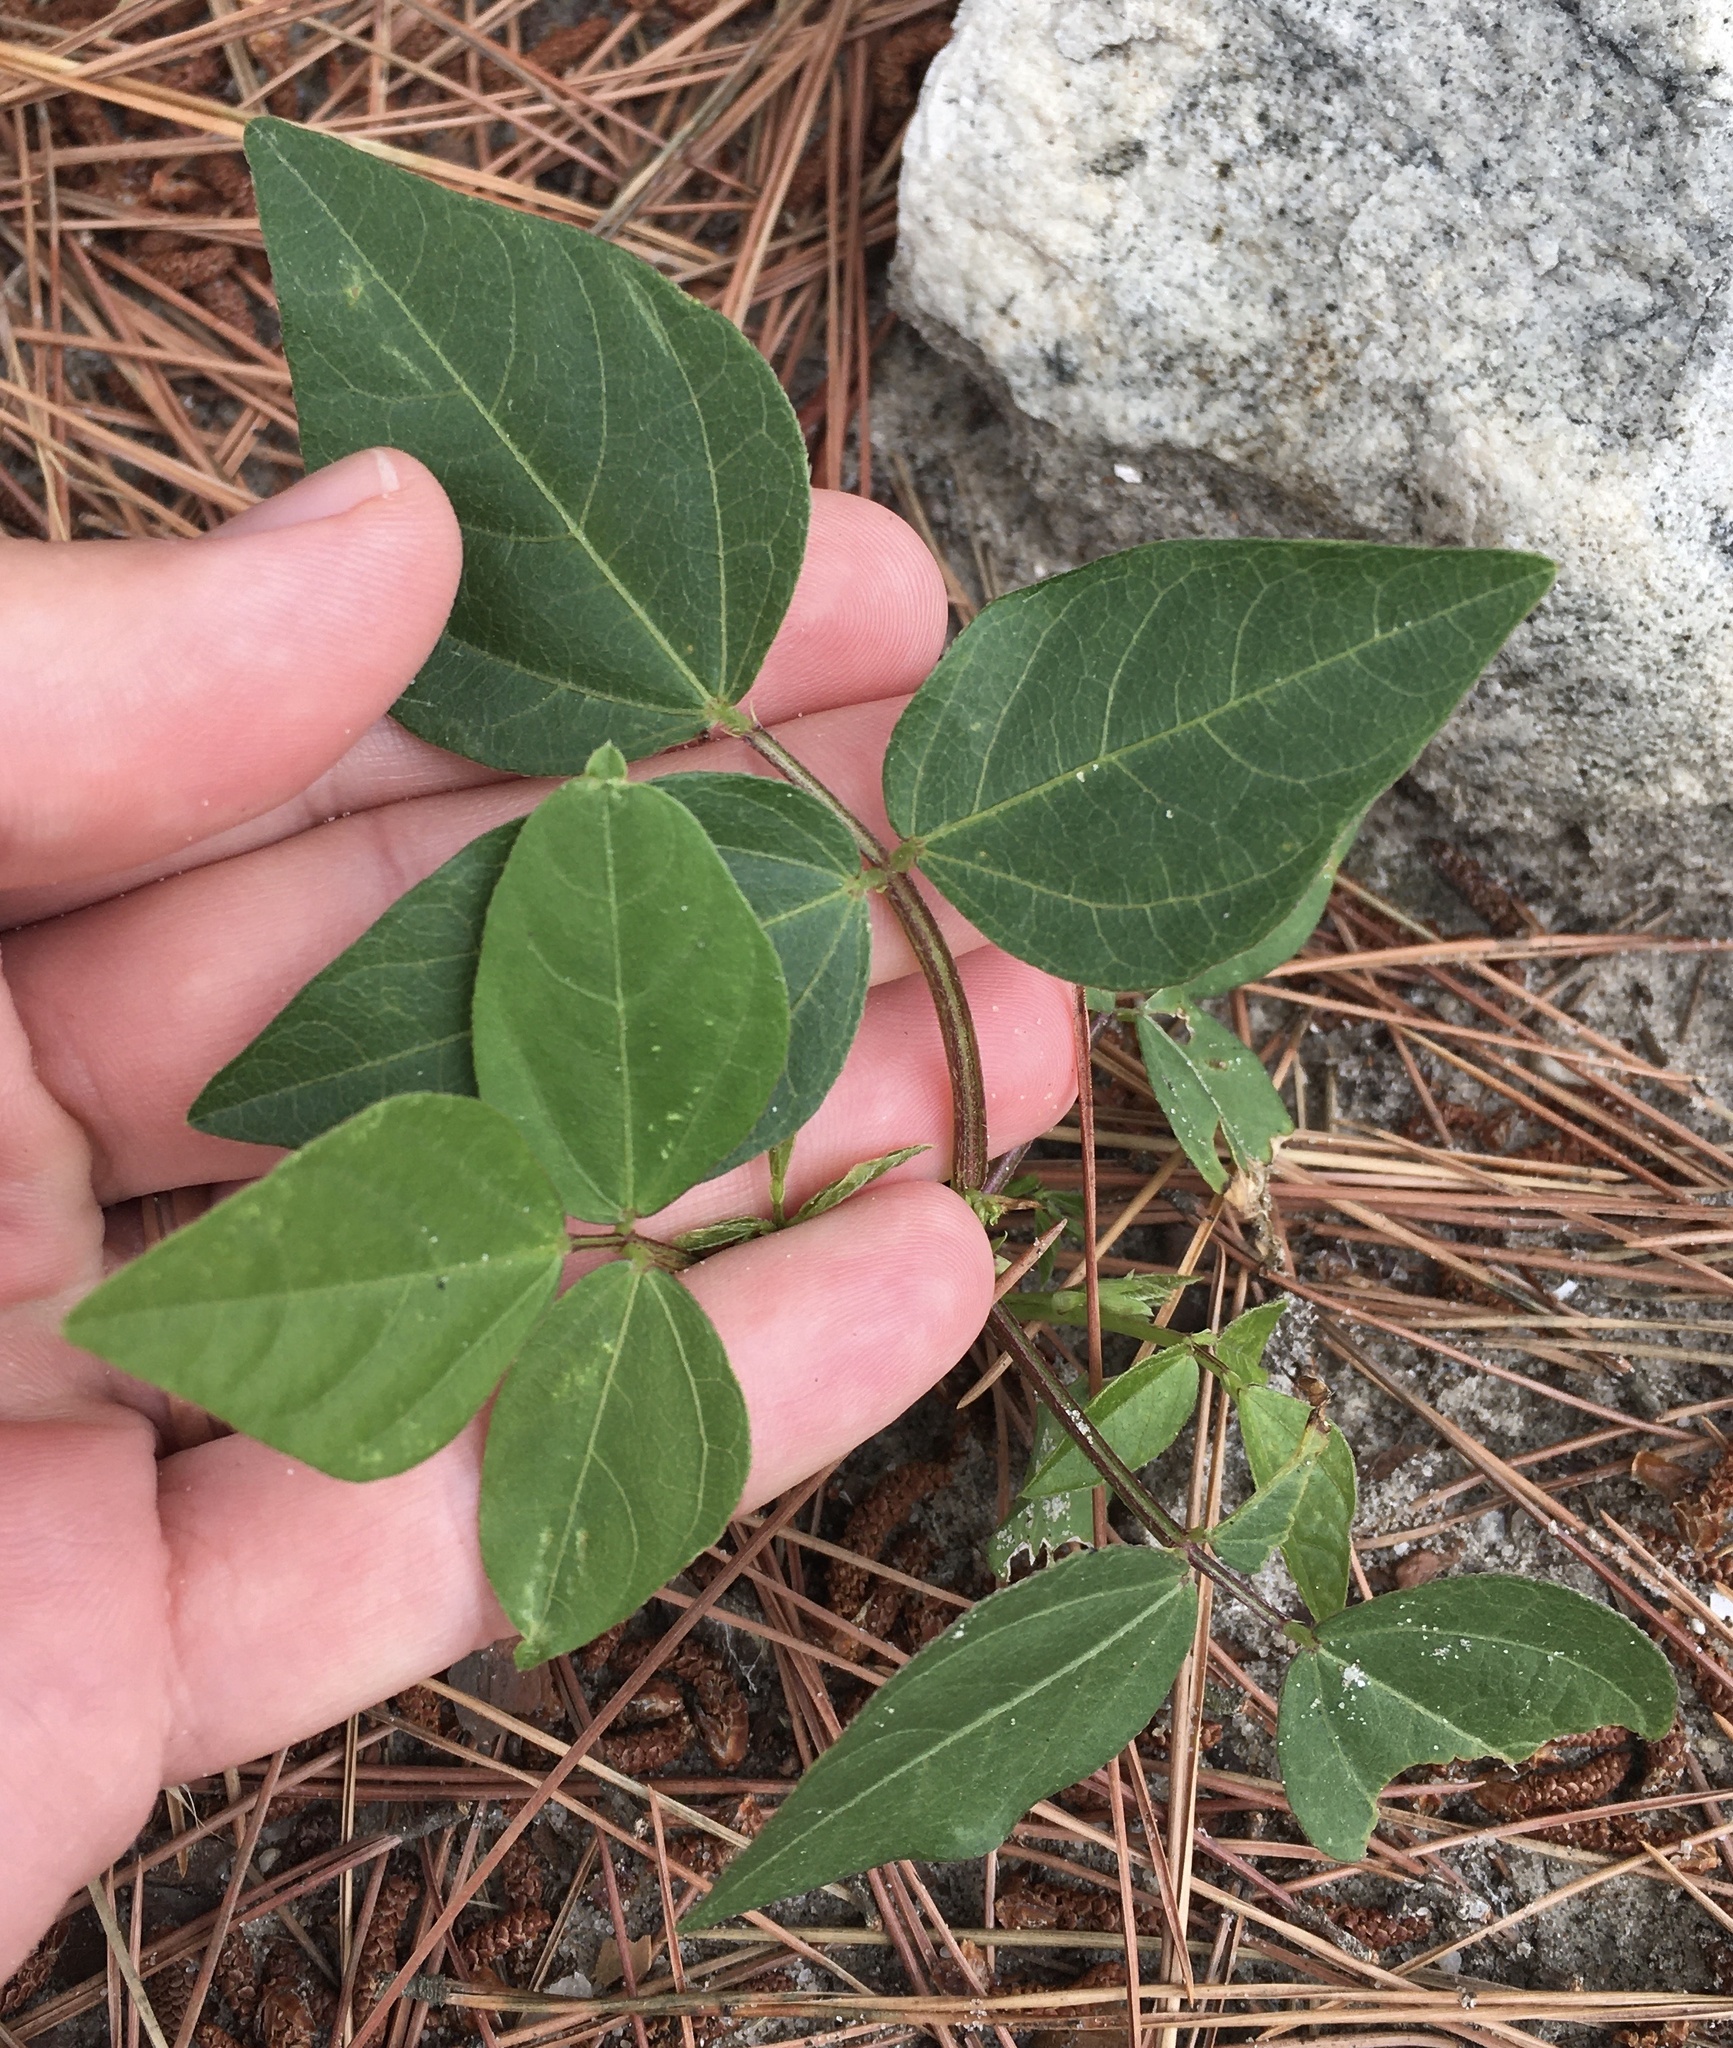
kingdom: Plantae
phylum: Tracheophyta
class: Magnoliopsida
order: Fabales
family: Fabaceae
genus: Strophostyles
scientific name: Strophostyles helvola
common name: Trailing wild bean
